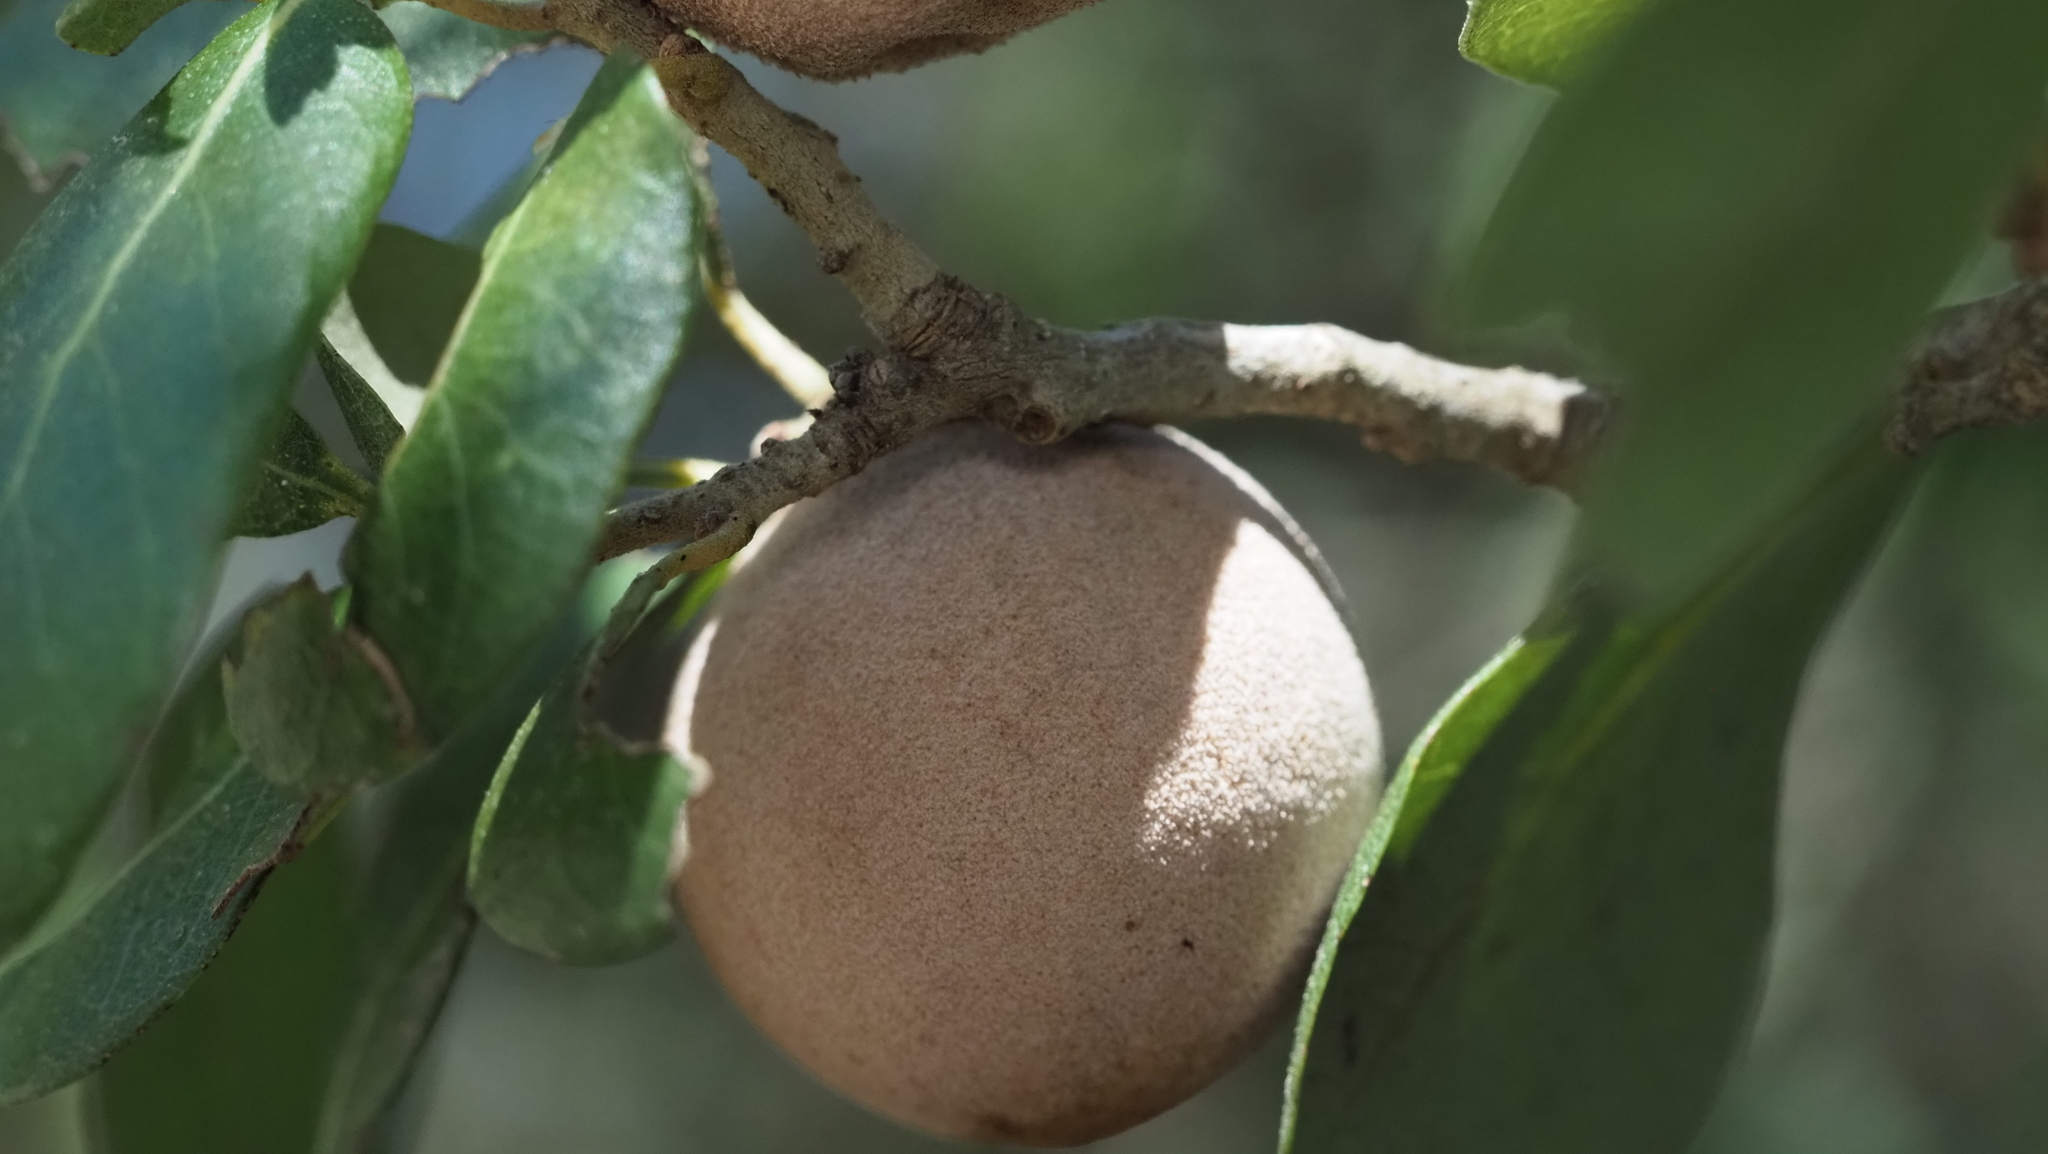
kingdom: Animalia
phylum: Arthropoda
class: Insecta
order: Hymenoptera
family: Cynipidae
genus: Disholcaspis
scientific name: Disholcaspis
